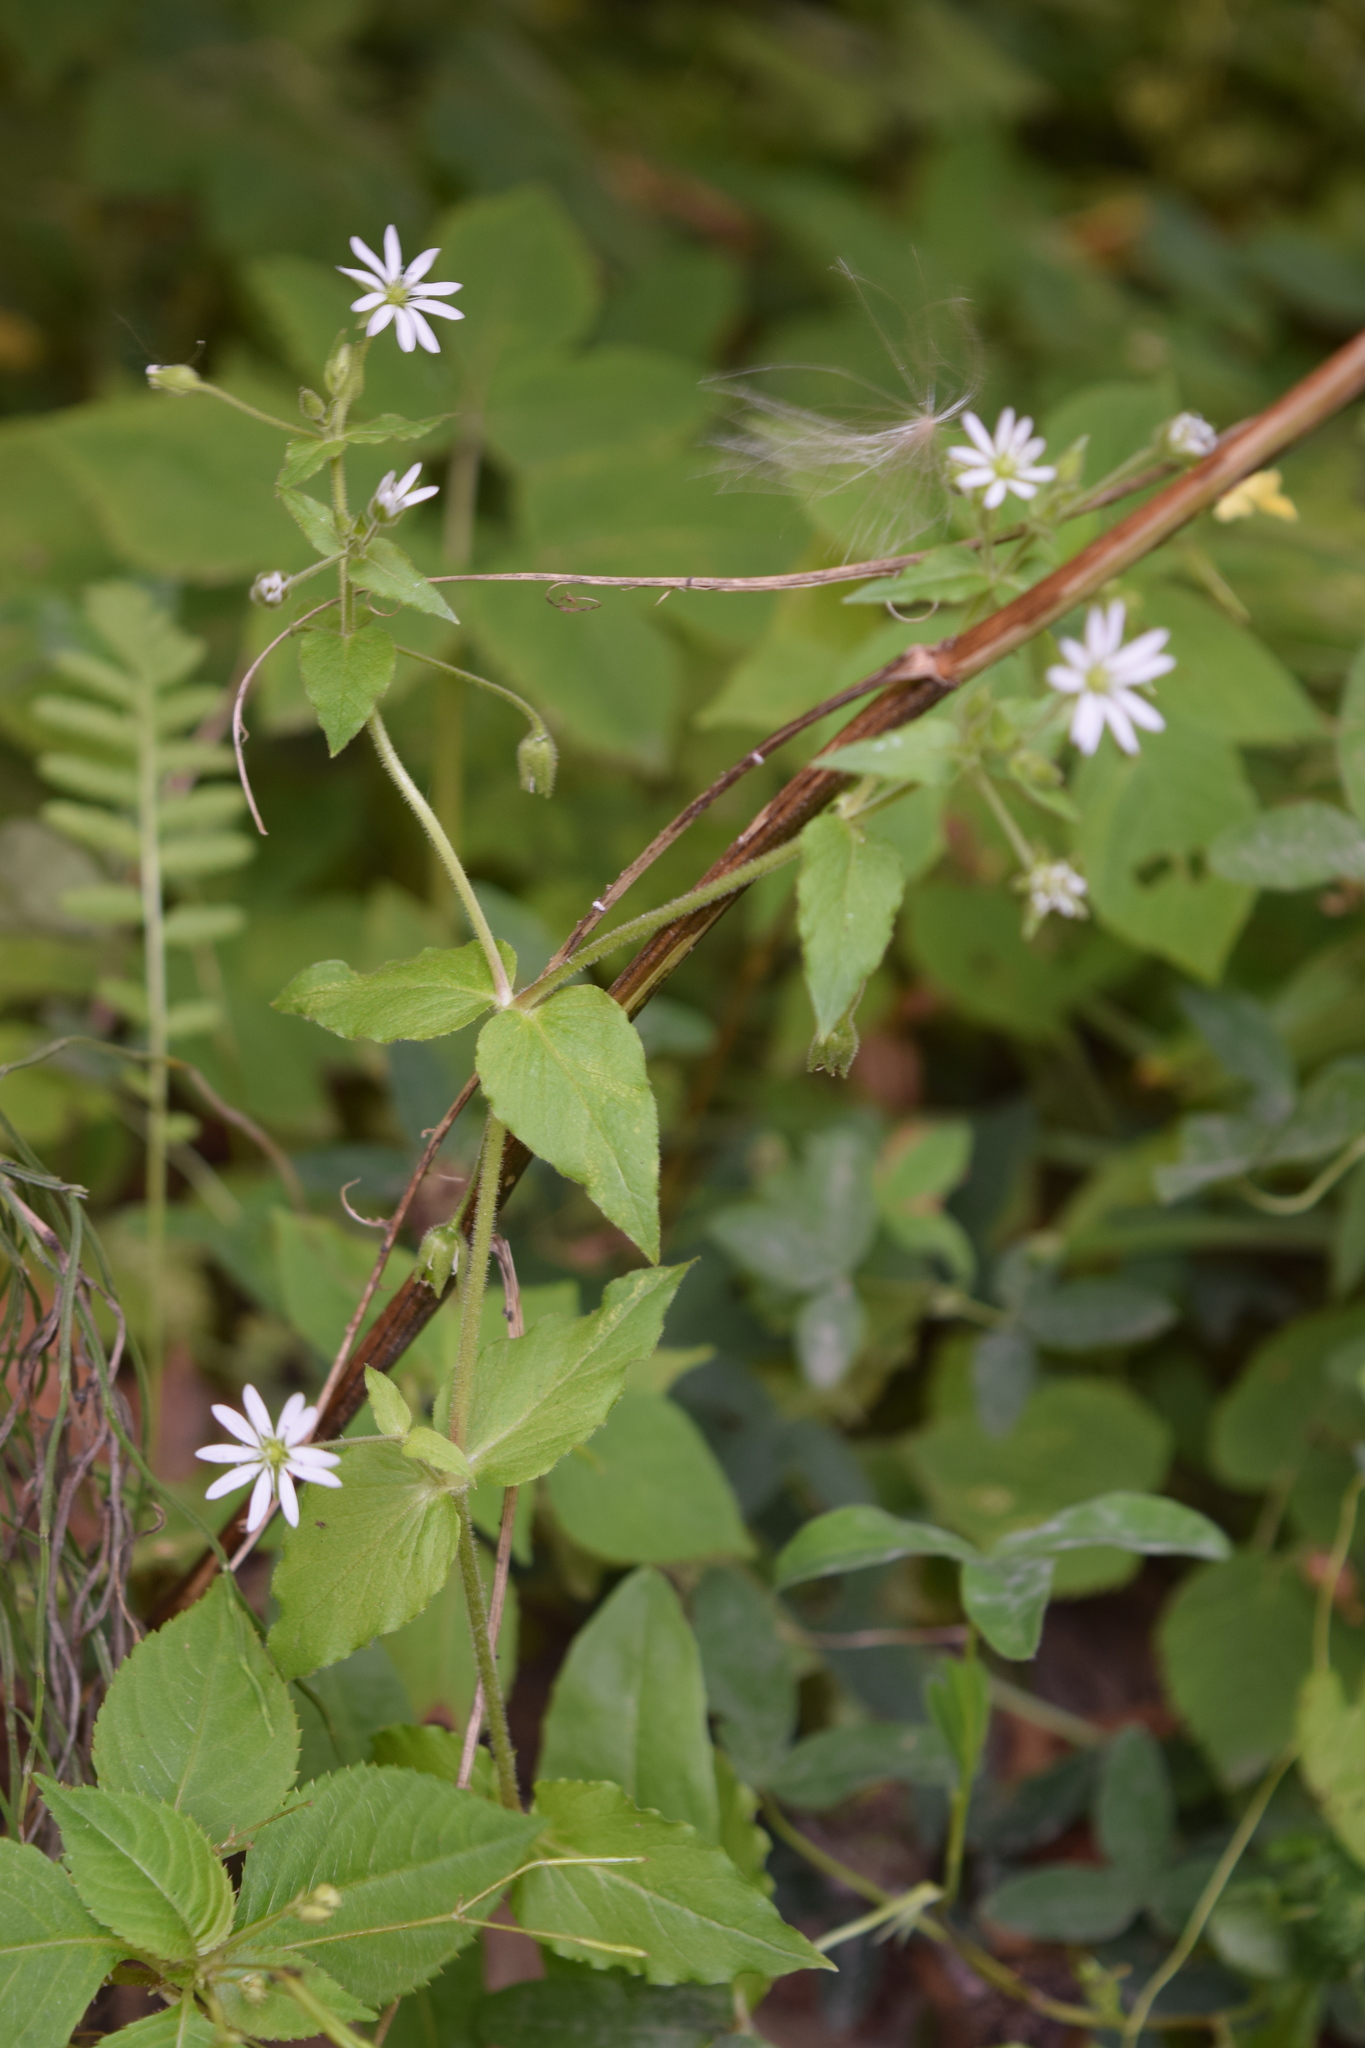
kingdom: Plantae
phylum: Tracheophyta
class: Magnoliopsida
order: Caryophyllales
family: Caryophyllaceae
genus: Stellaria
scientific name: Stellaria aquatica
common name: Water chickweed
